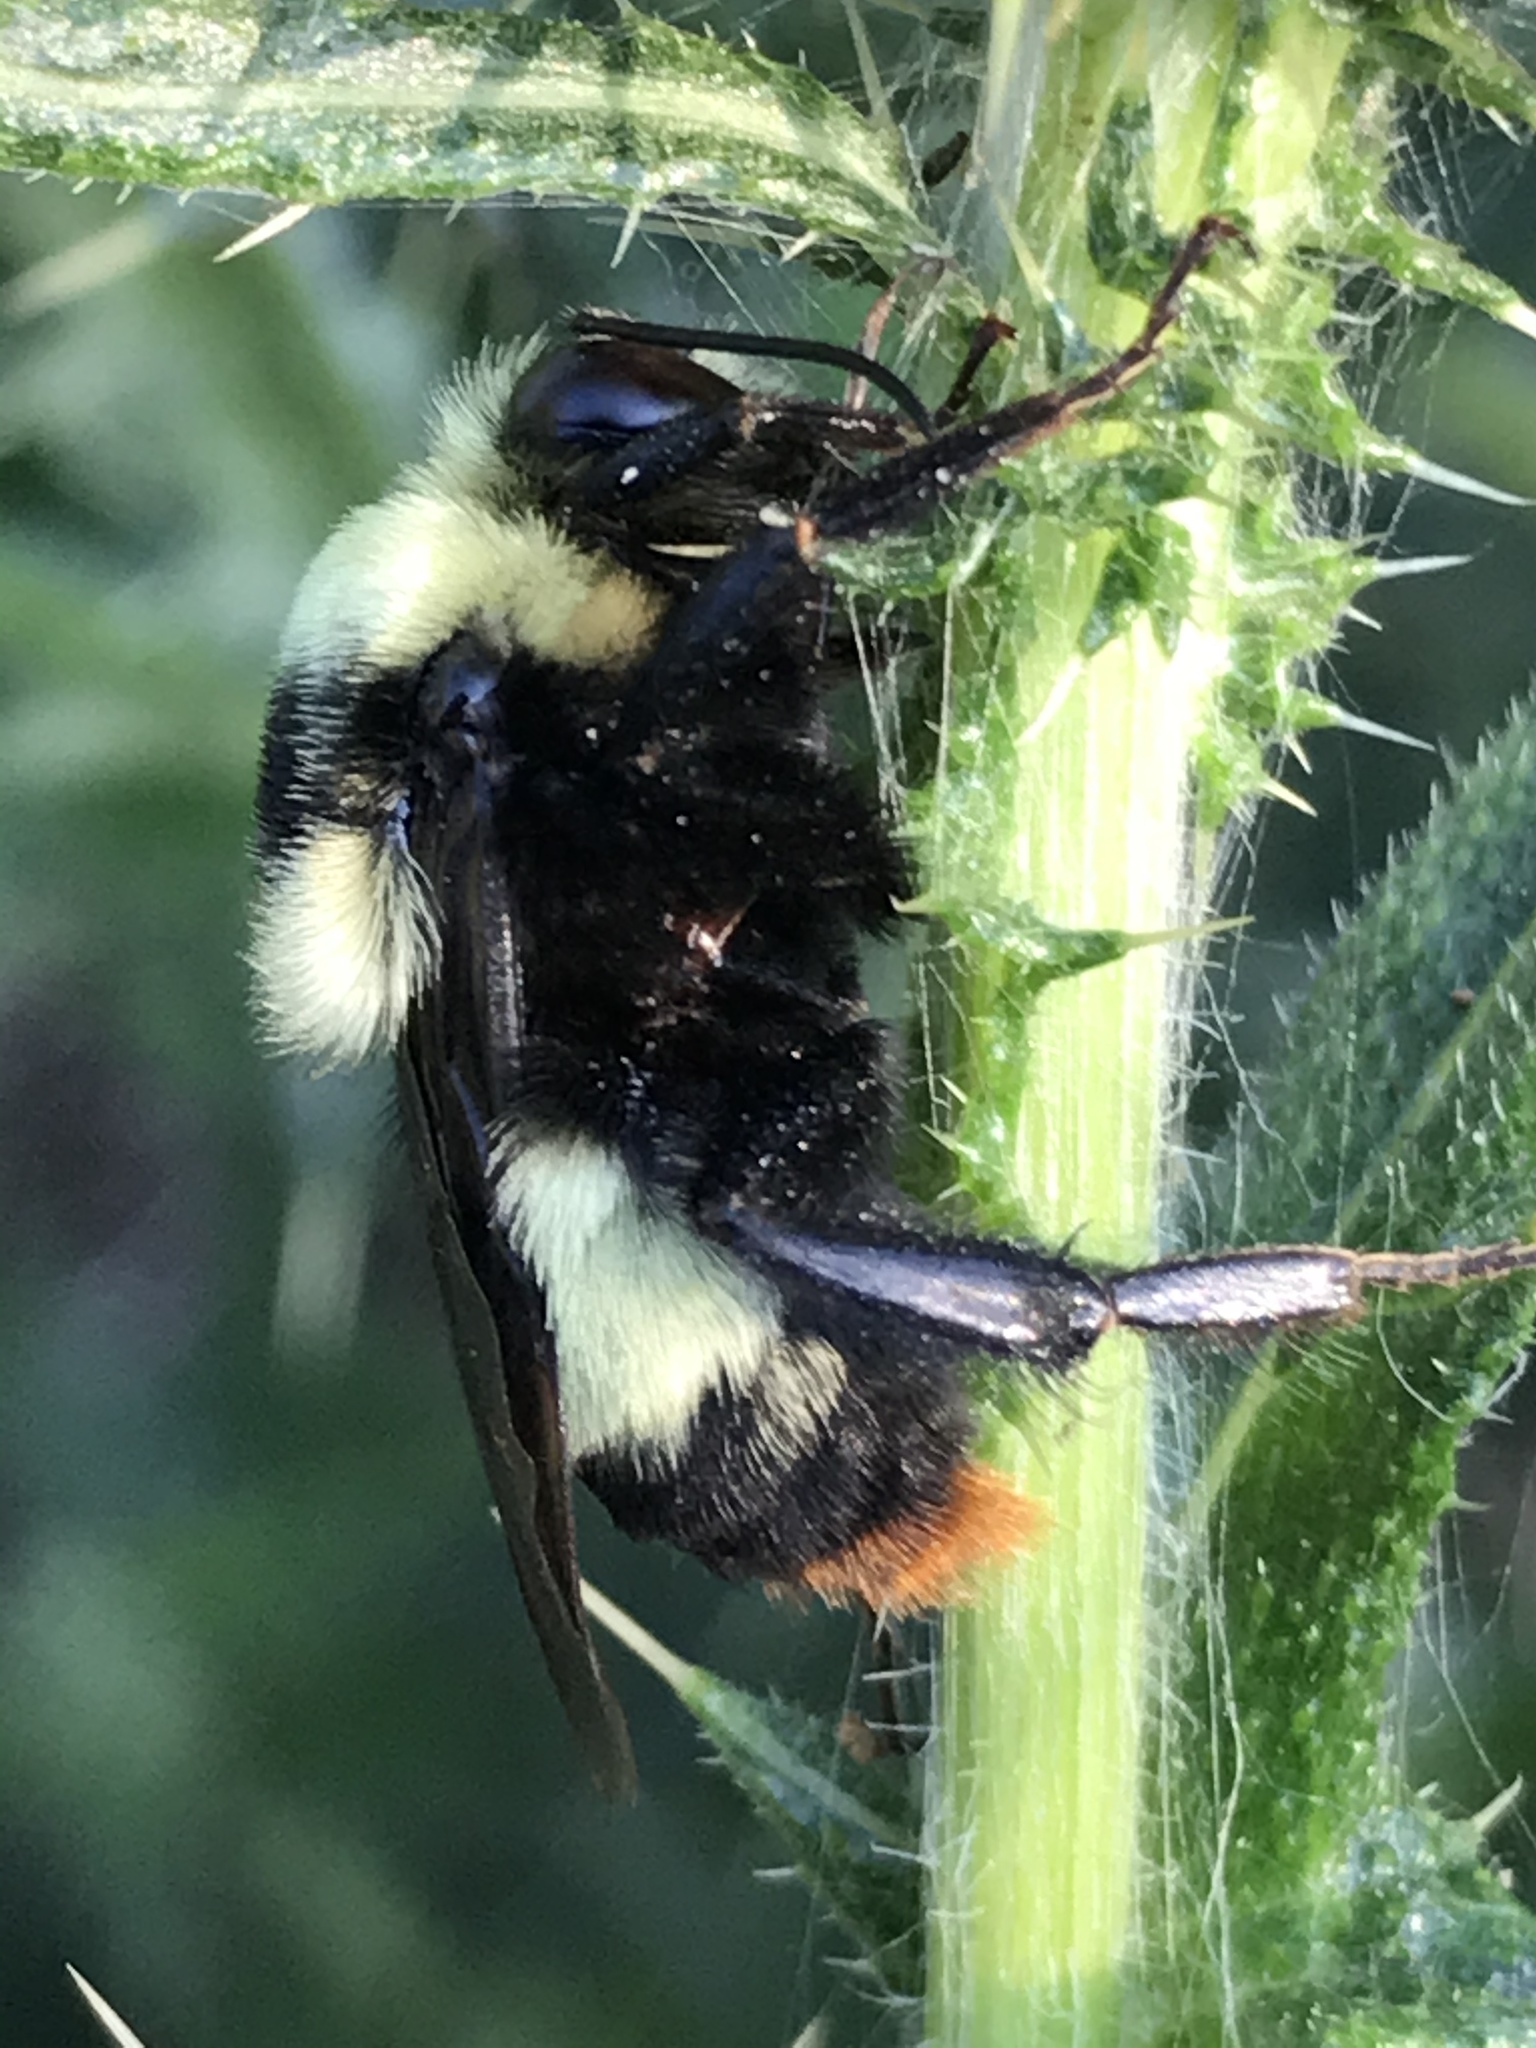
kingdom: Animalia
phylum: Arthropoda
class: Insecta
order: Hymenoptera
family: Apidae
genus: Bombus
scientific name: Bombus crotchii
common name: Crotch bumble bee
